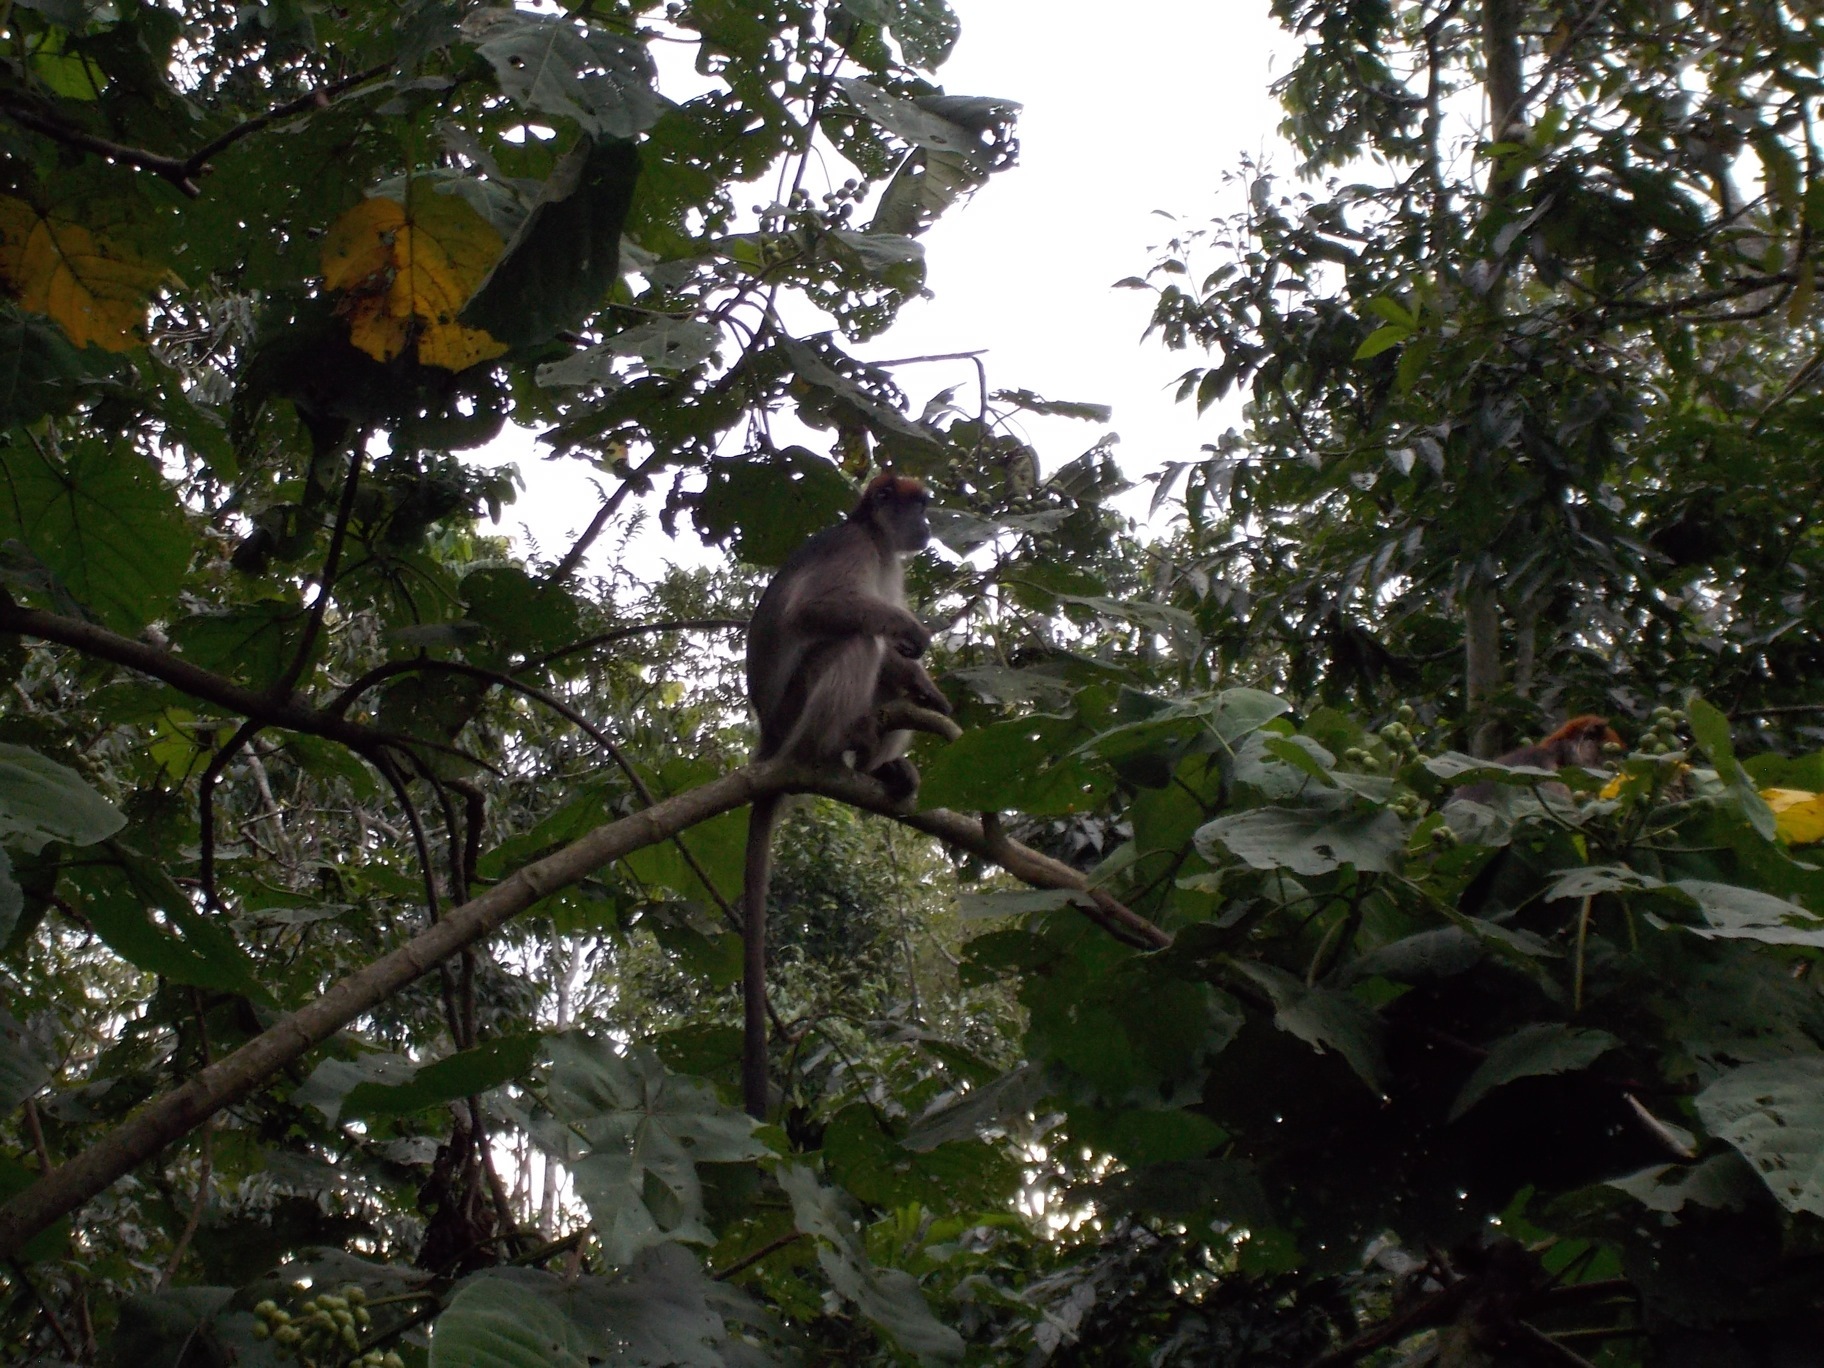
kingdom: Animalia
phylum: Chordata
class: Mammalia
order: Primates
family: Cercopithecidae
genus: Piliocolobus
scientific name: Piliocolobus tephrosceles
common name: Ugandan red colobus
